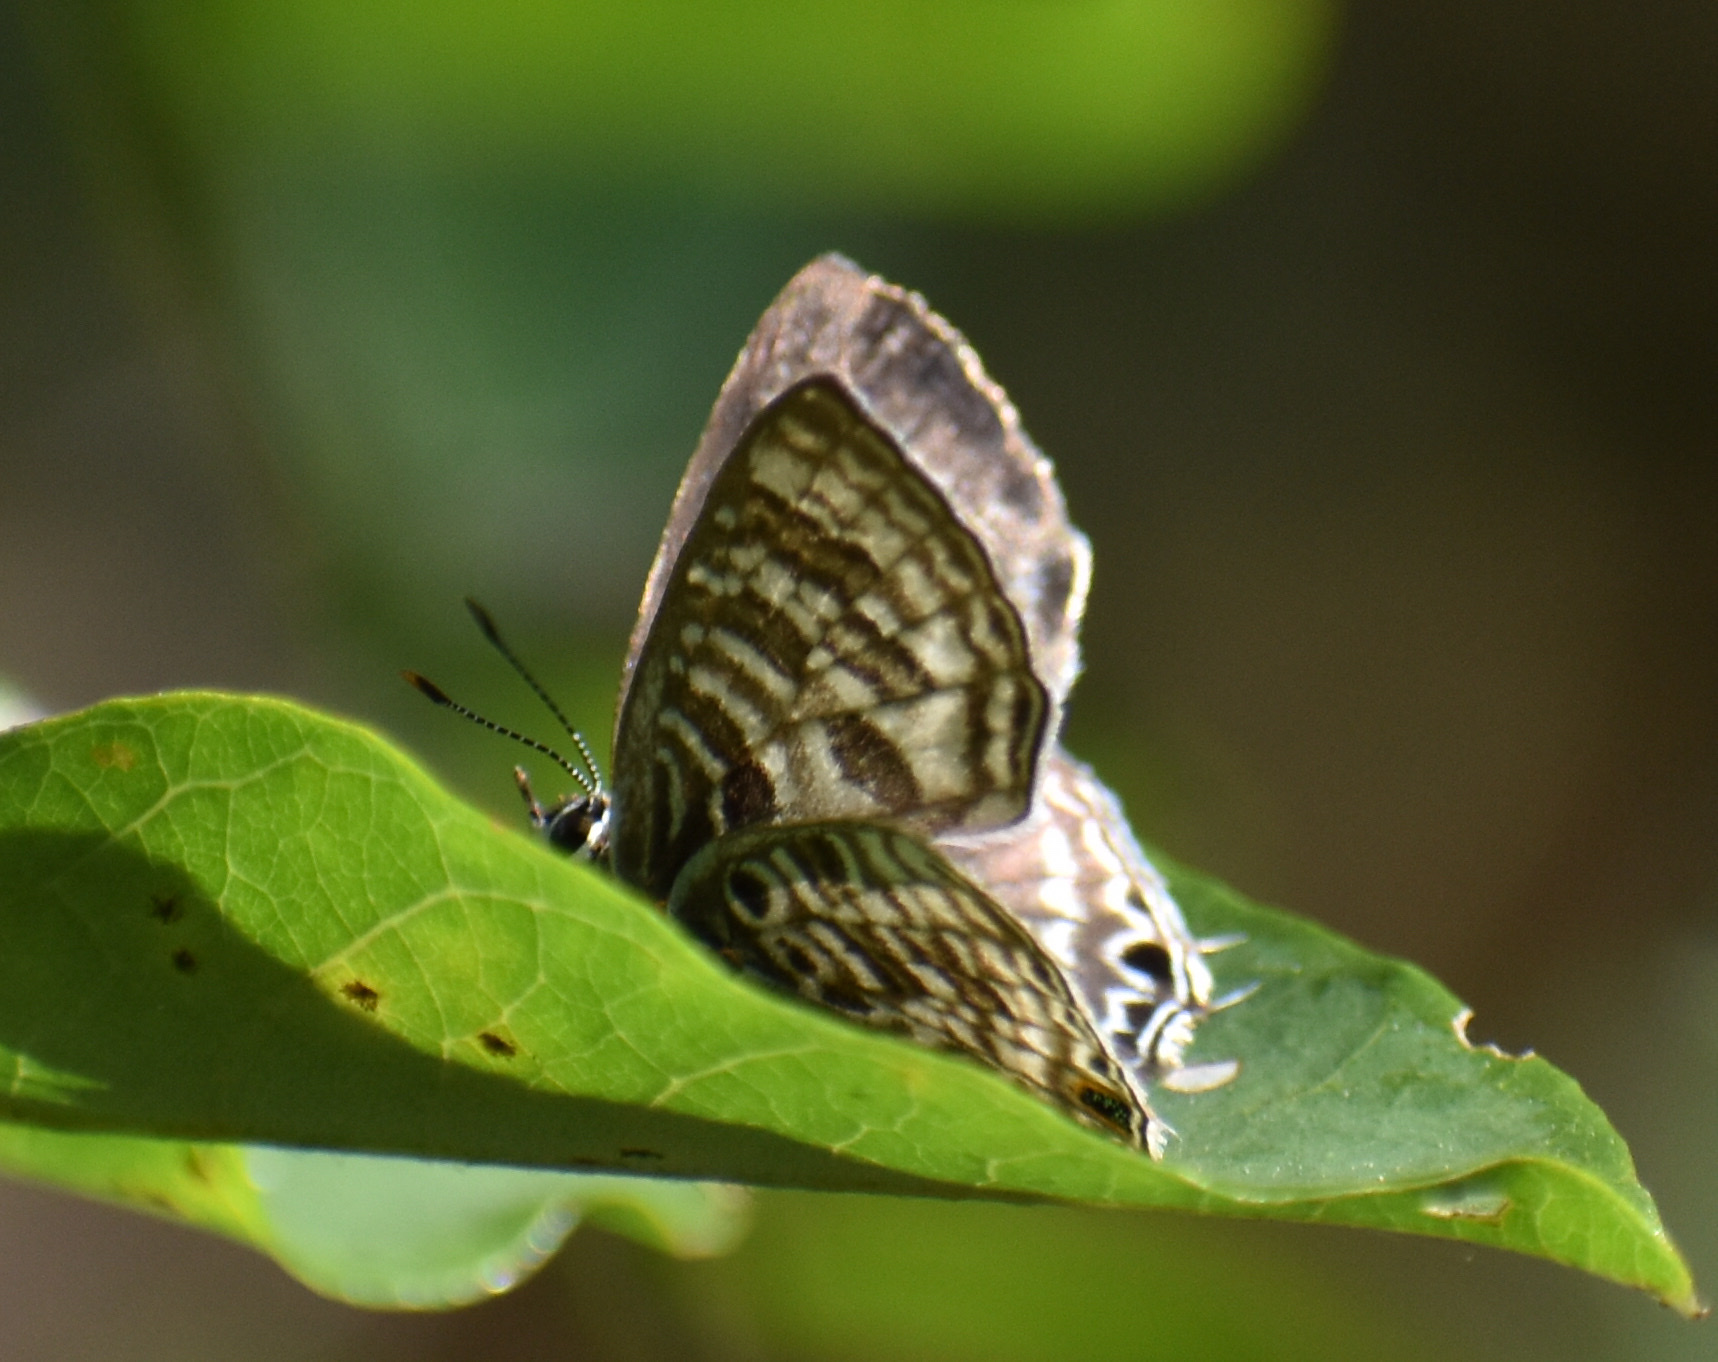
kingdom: Animalia
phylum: Arthropoda
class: Insecta
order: Lepidoptera
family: Lycaenidae
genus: Anthene
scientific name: Anthene larydas
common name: Forest hairtail
